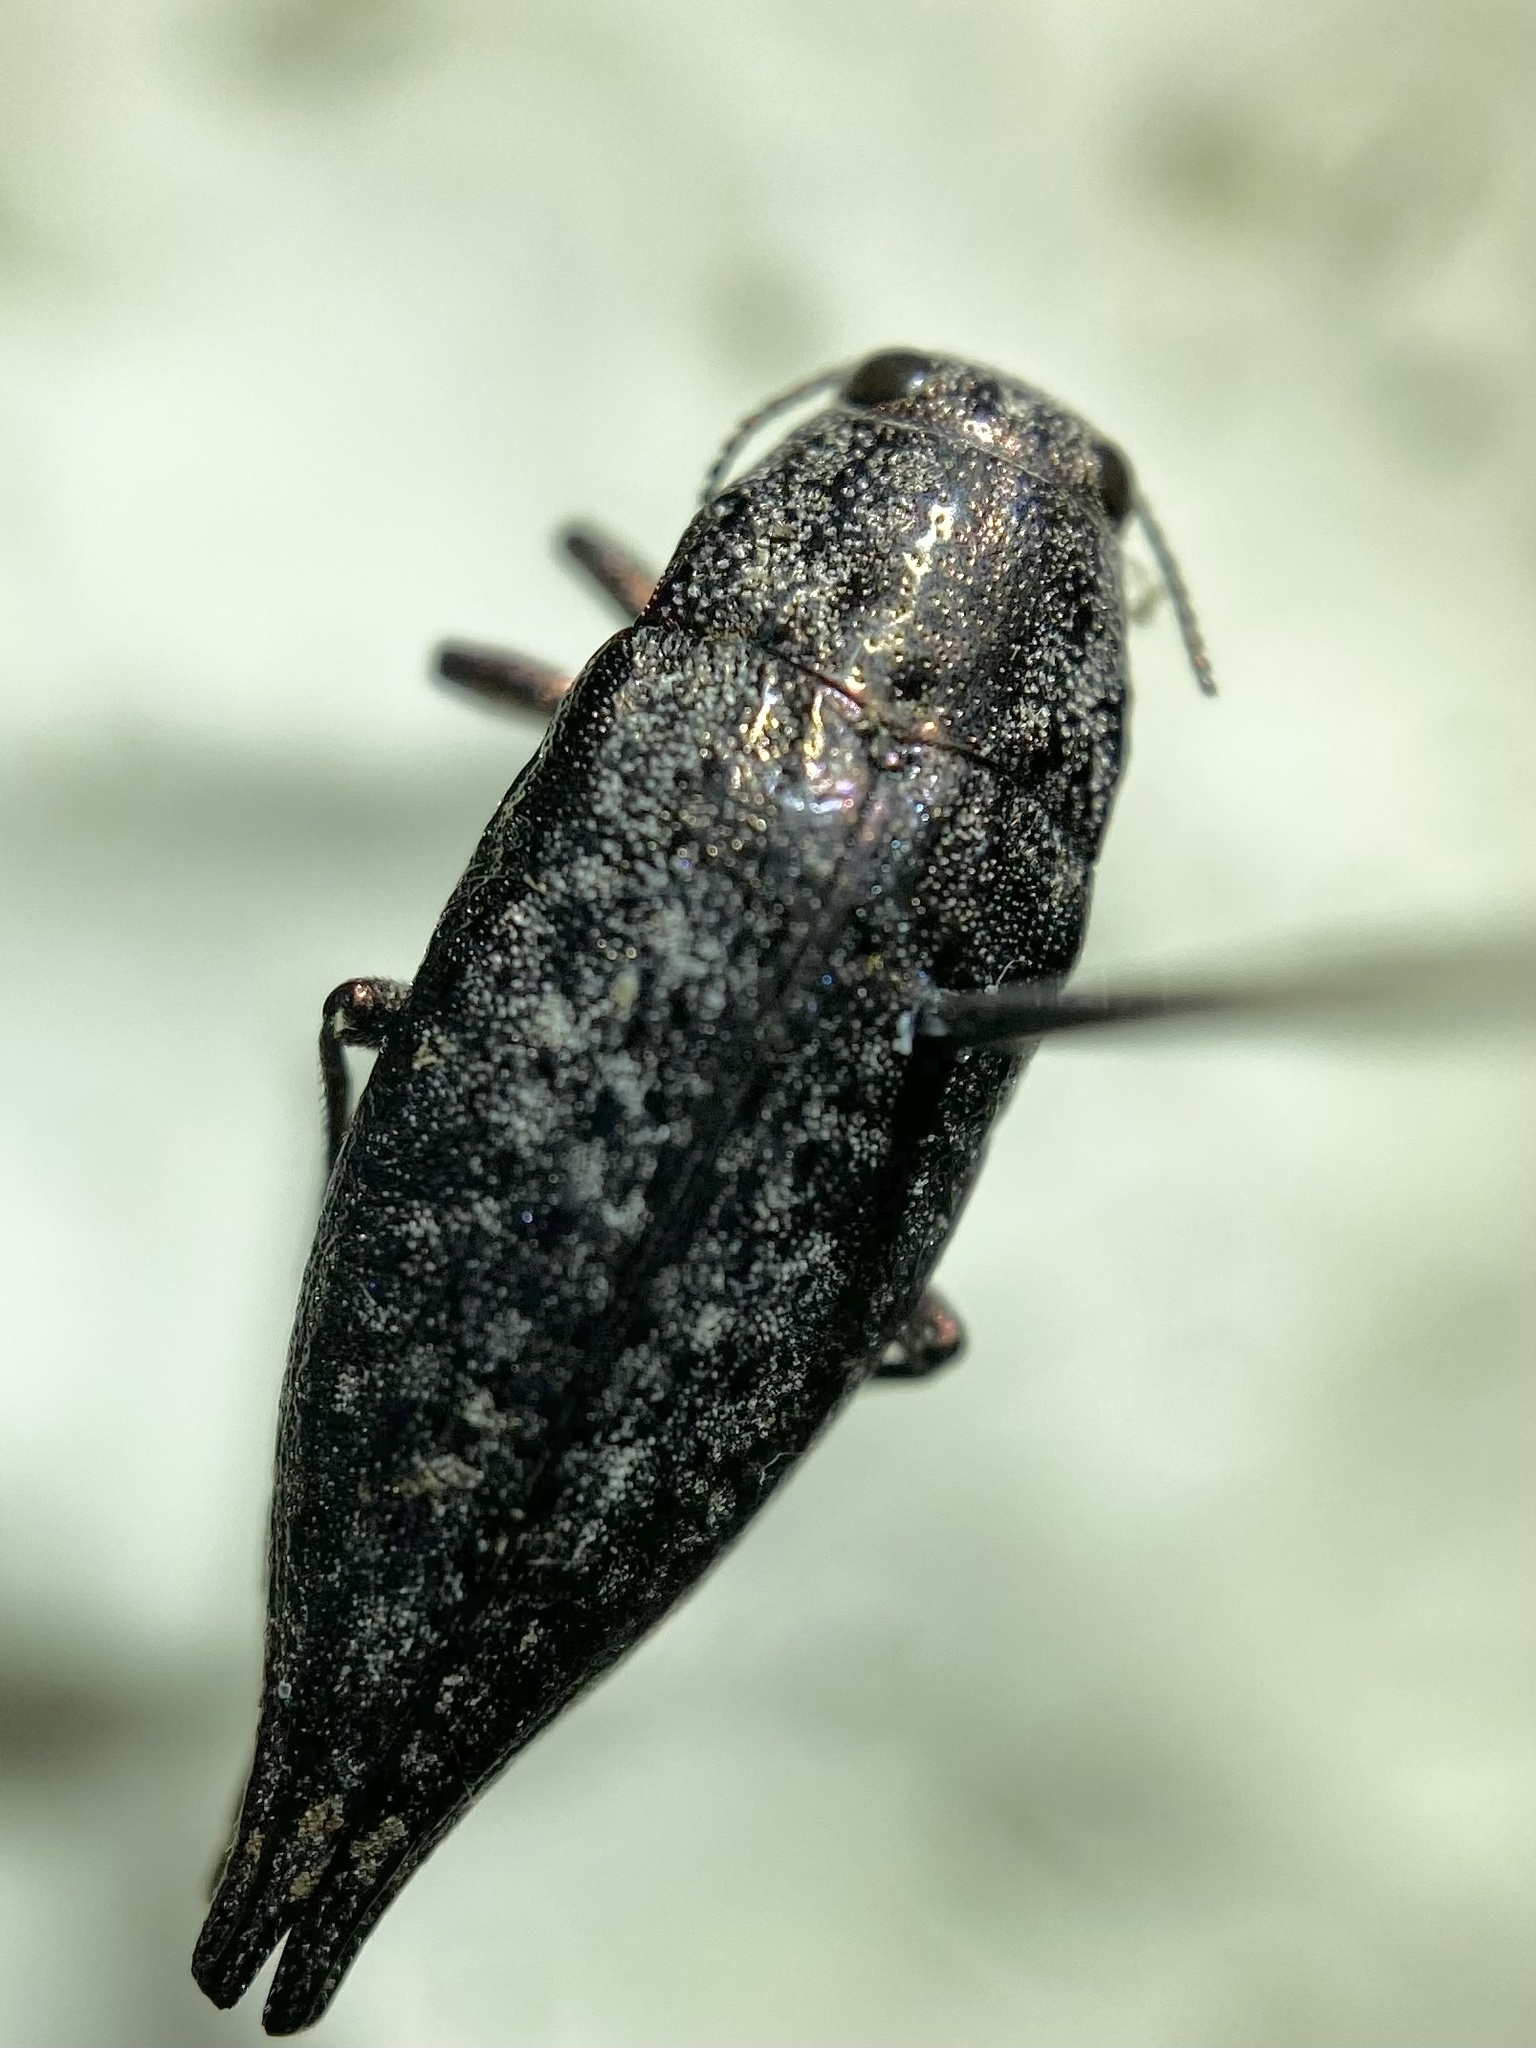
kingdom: Animalia
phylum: Arthropoda
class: Insecta
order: Coleoptera
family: Buprestidae
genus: Dicerca
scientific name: Dicerca caudata
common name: Tailed jewel borer
